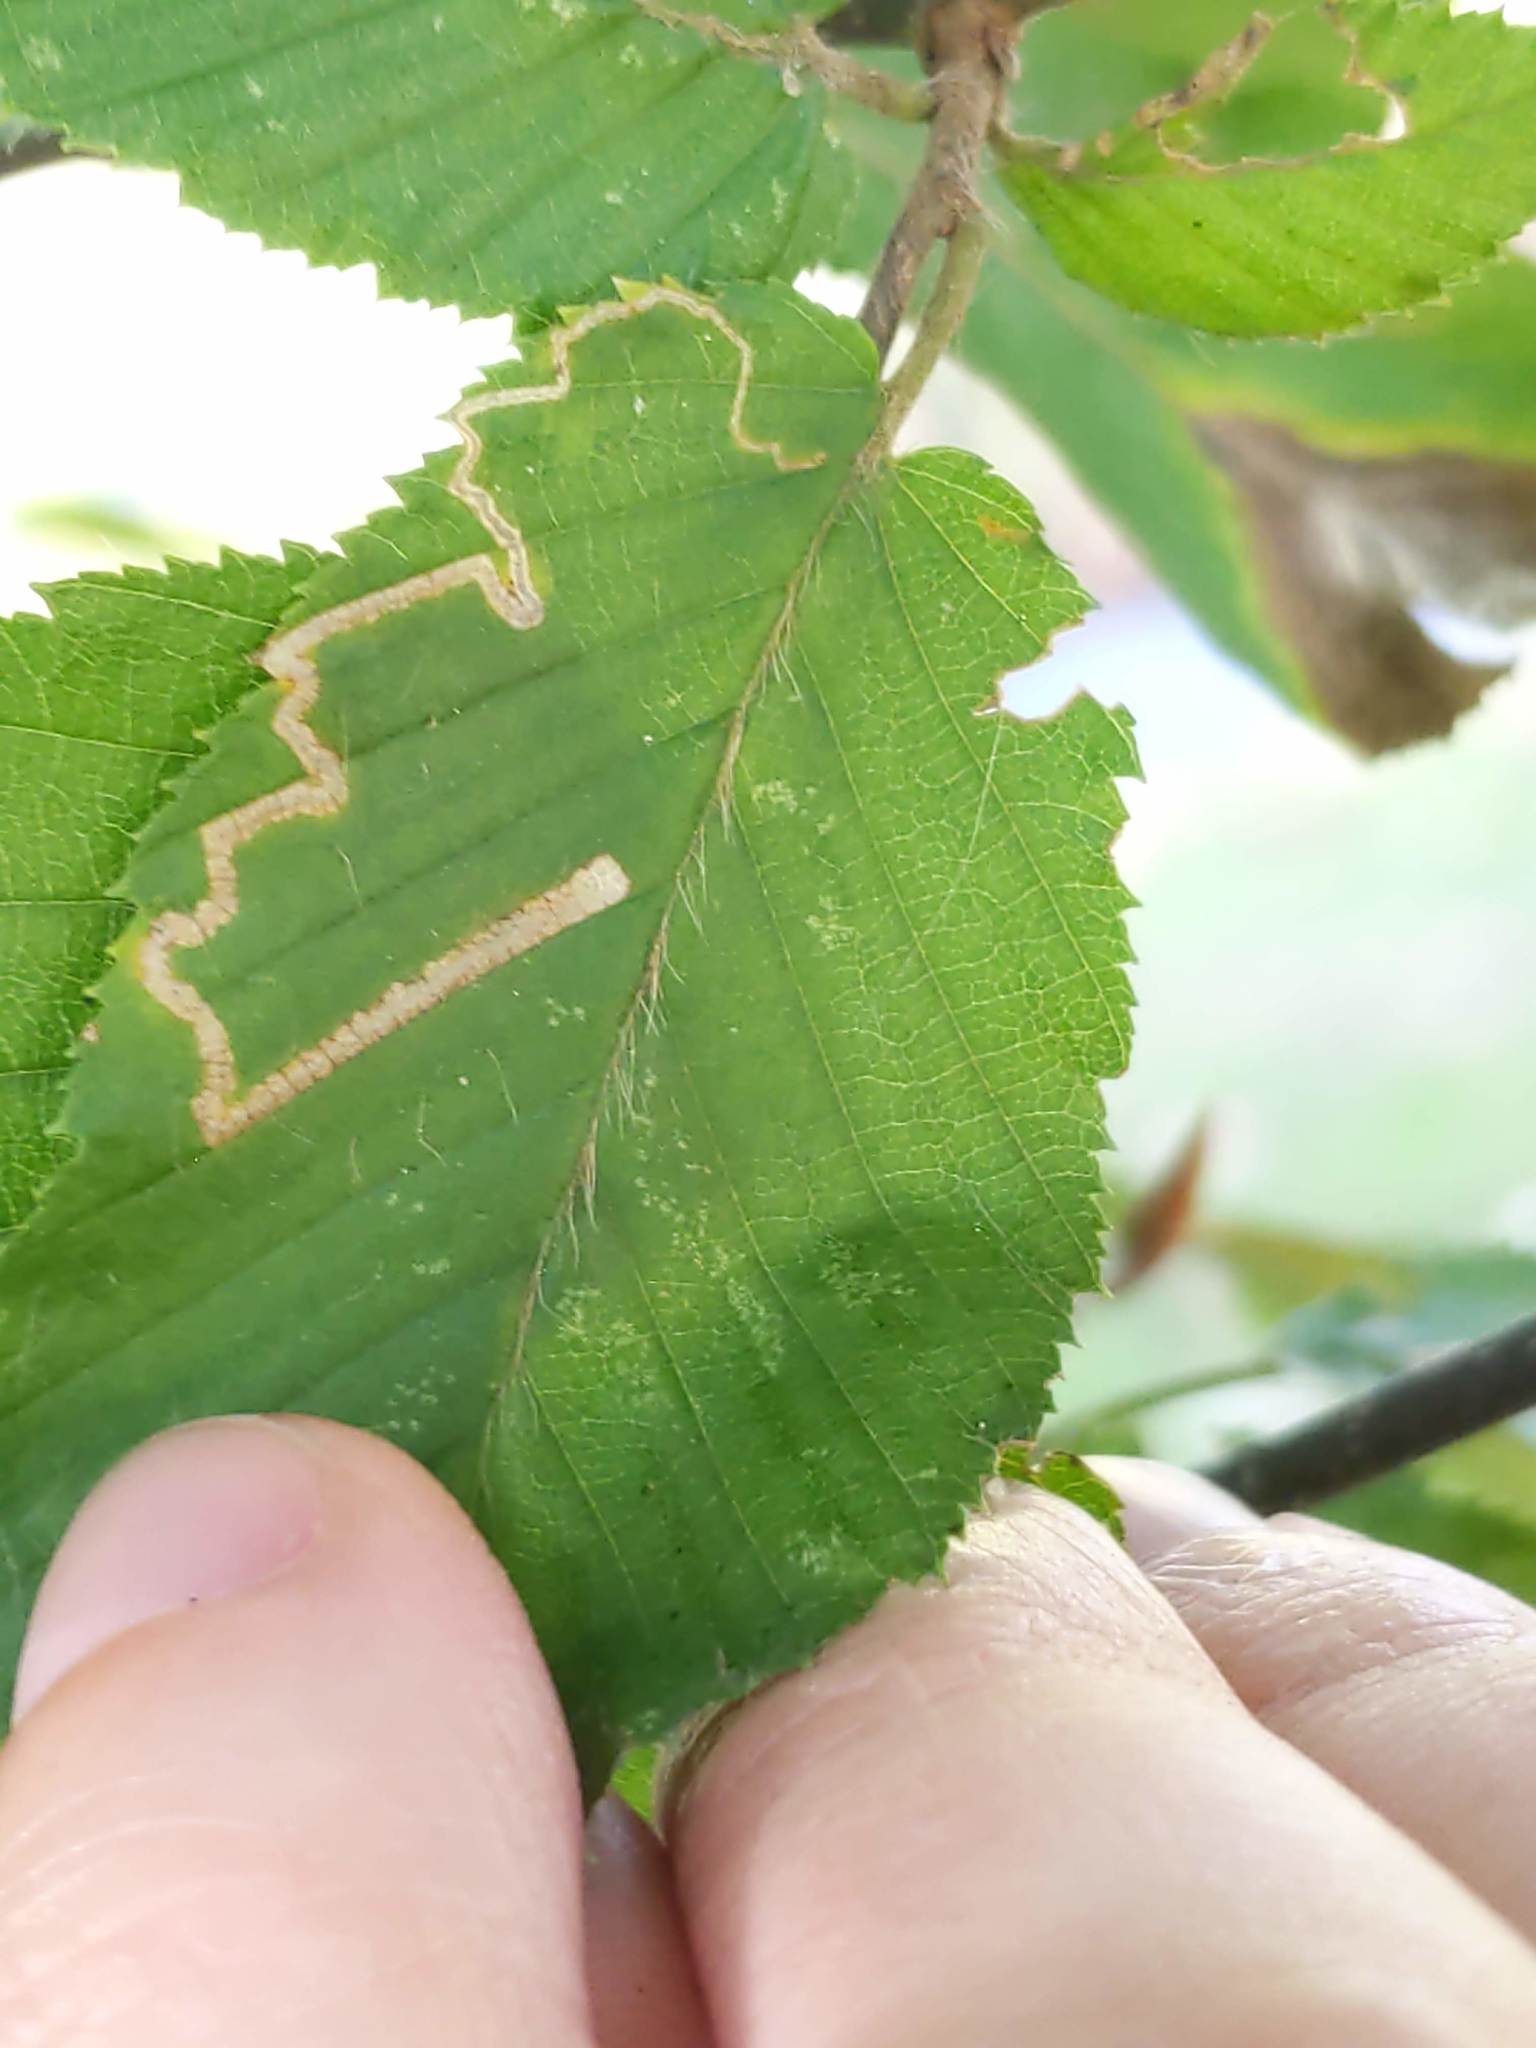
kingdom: Animalia
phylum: Arthropoda
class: Insecta
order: Lepidoptera
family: Nepticulidae
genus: Stigmella
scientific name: Stigmella betulicola
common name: Common birch pigmy
